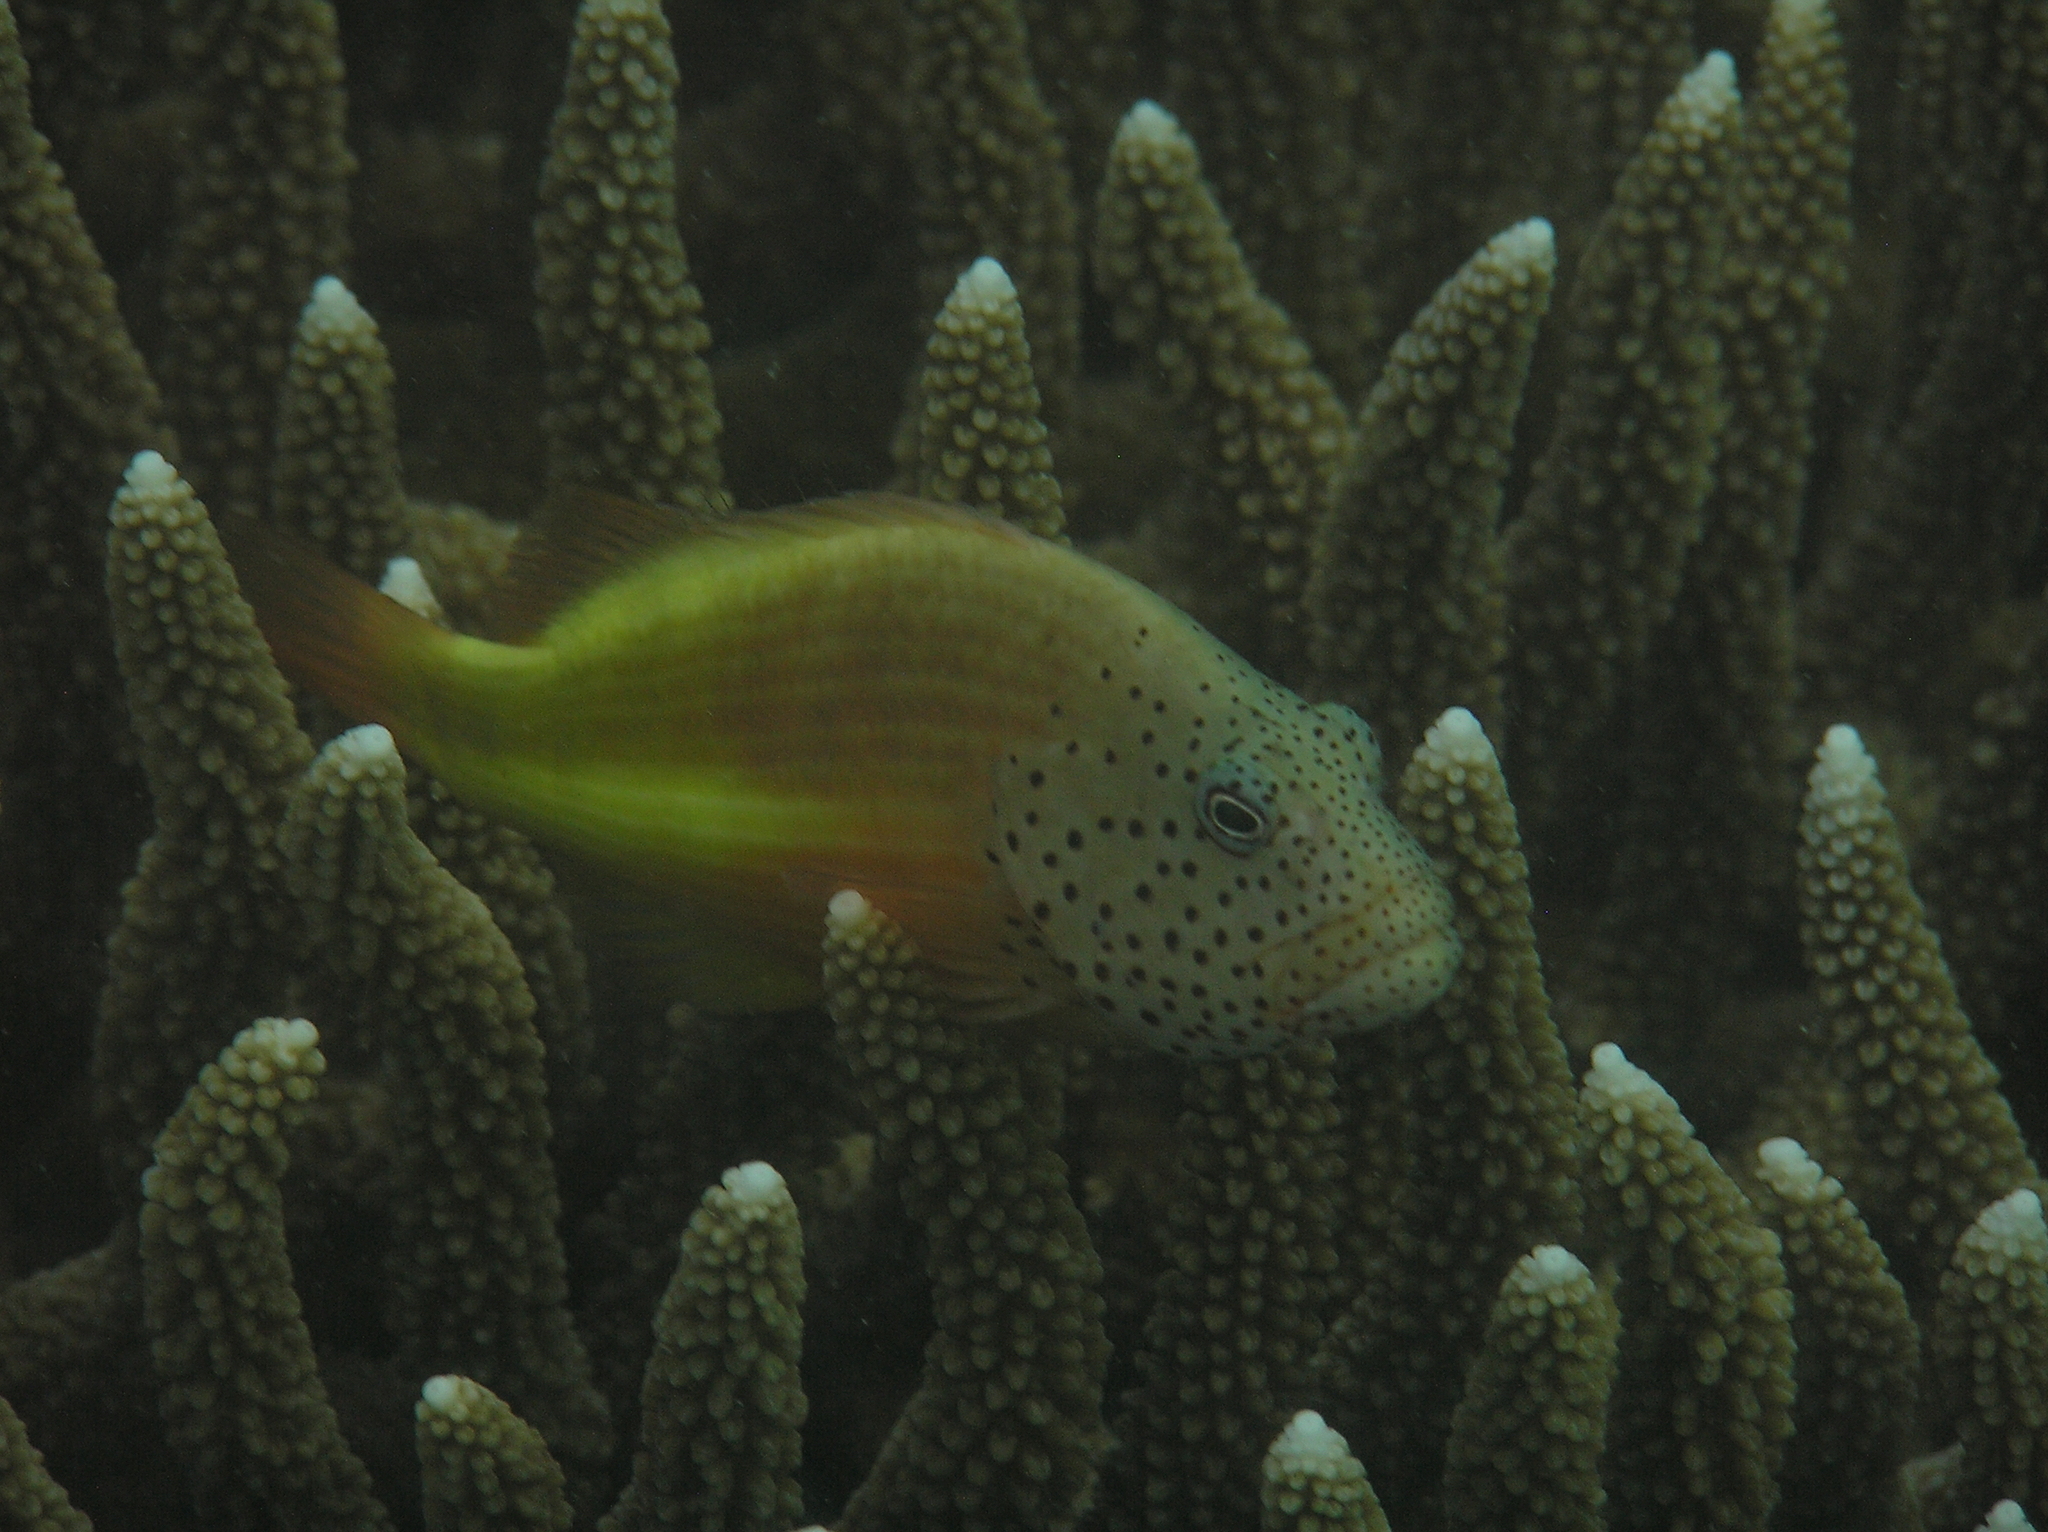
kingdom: Animalia
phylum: Chordata
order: Perciformes
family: Cirrhitidae
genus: Paracirrhites
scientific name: Paracirrhites forsteri
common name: Freckled hawkfish
